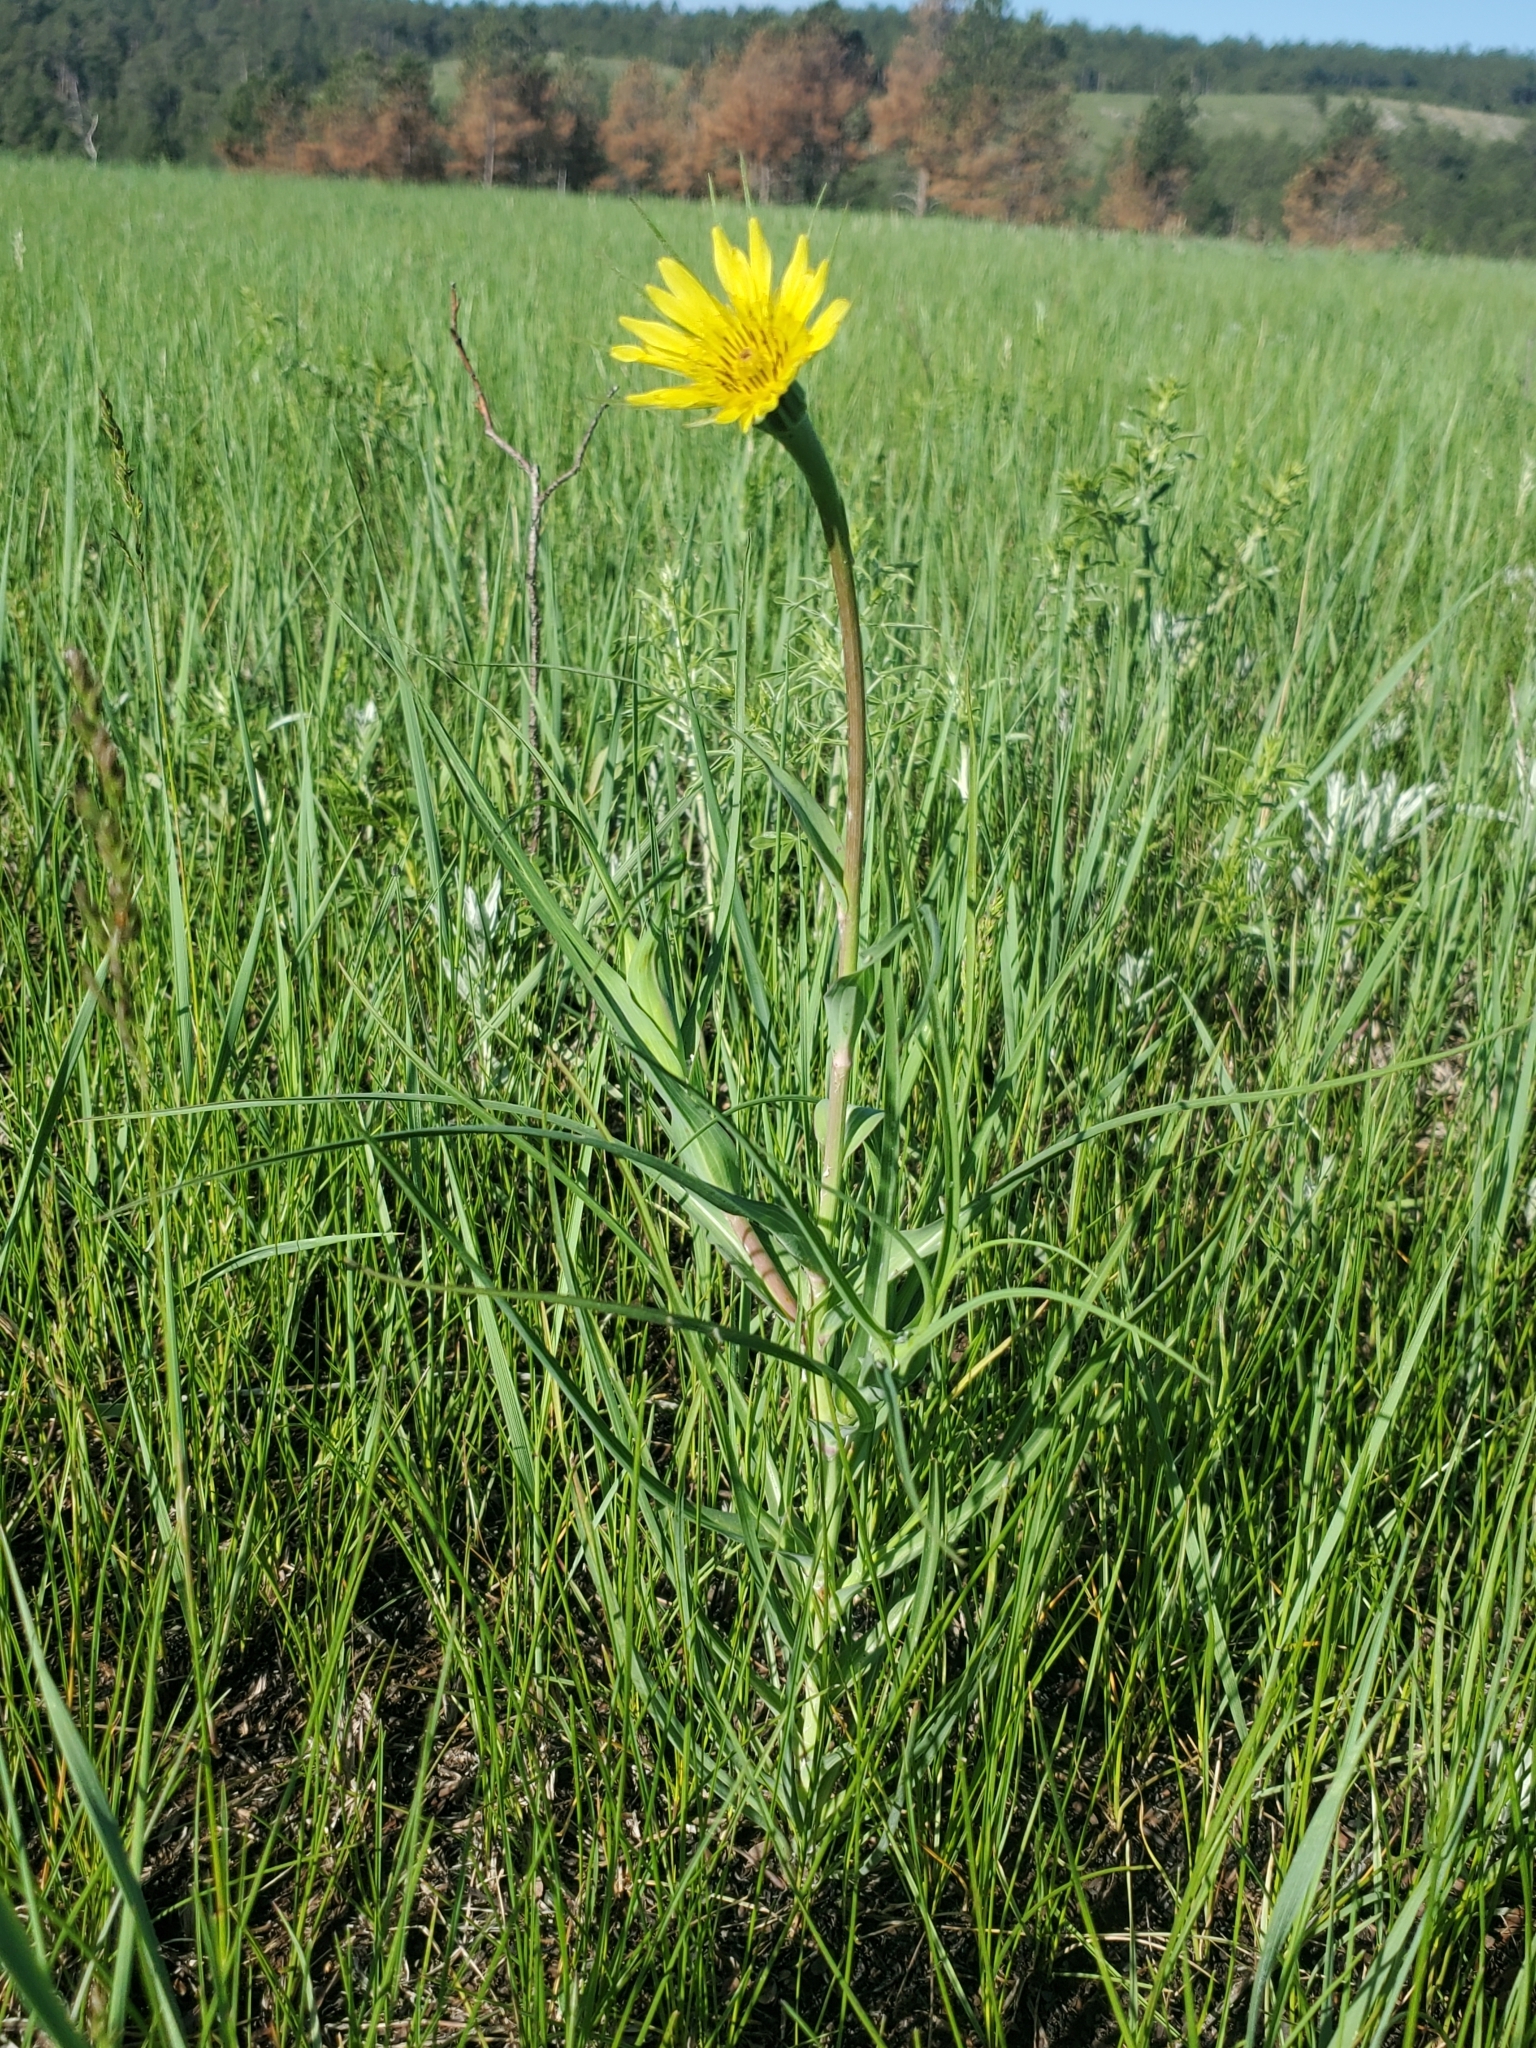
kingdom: Plantae
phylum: Tracheophyta
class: Magnoliopsida
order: Asterales
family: Asteraceae
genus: Tragopogon
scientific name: Tragopogon dubius
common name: Yellow salsify
